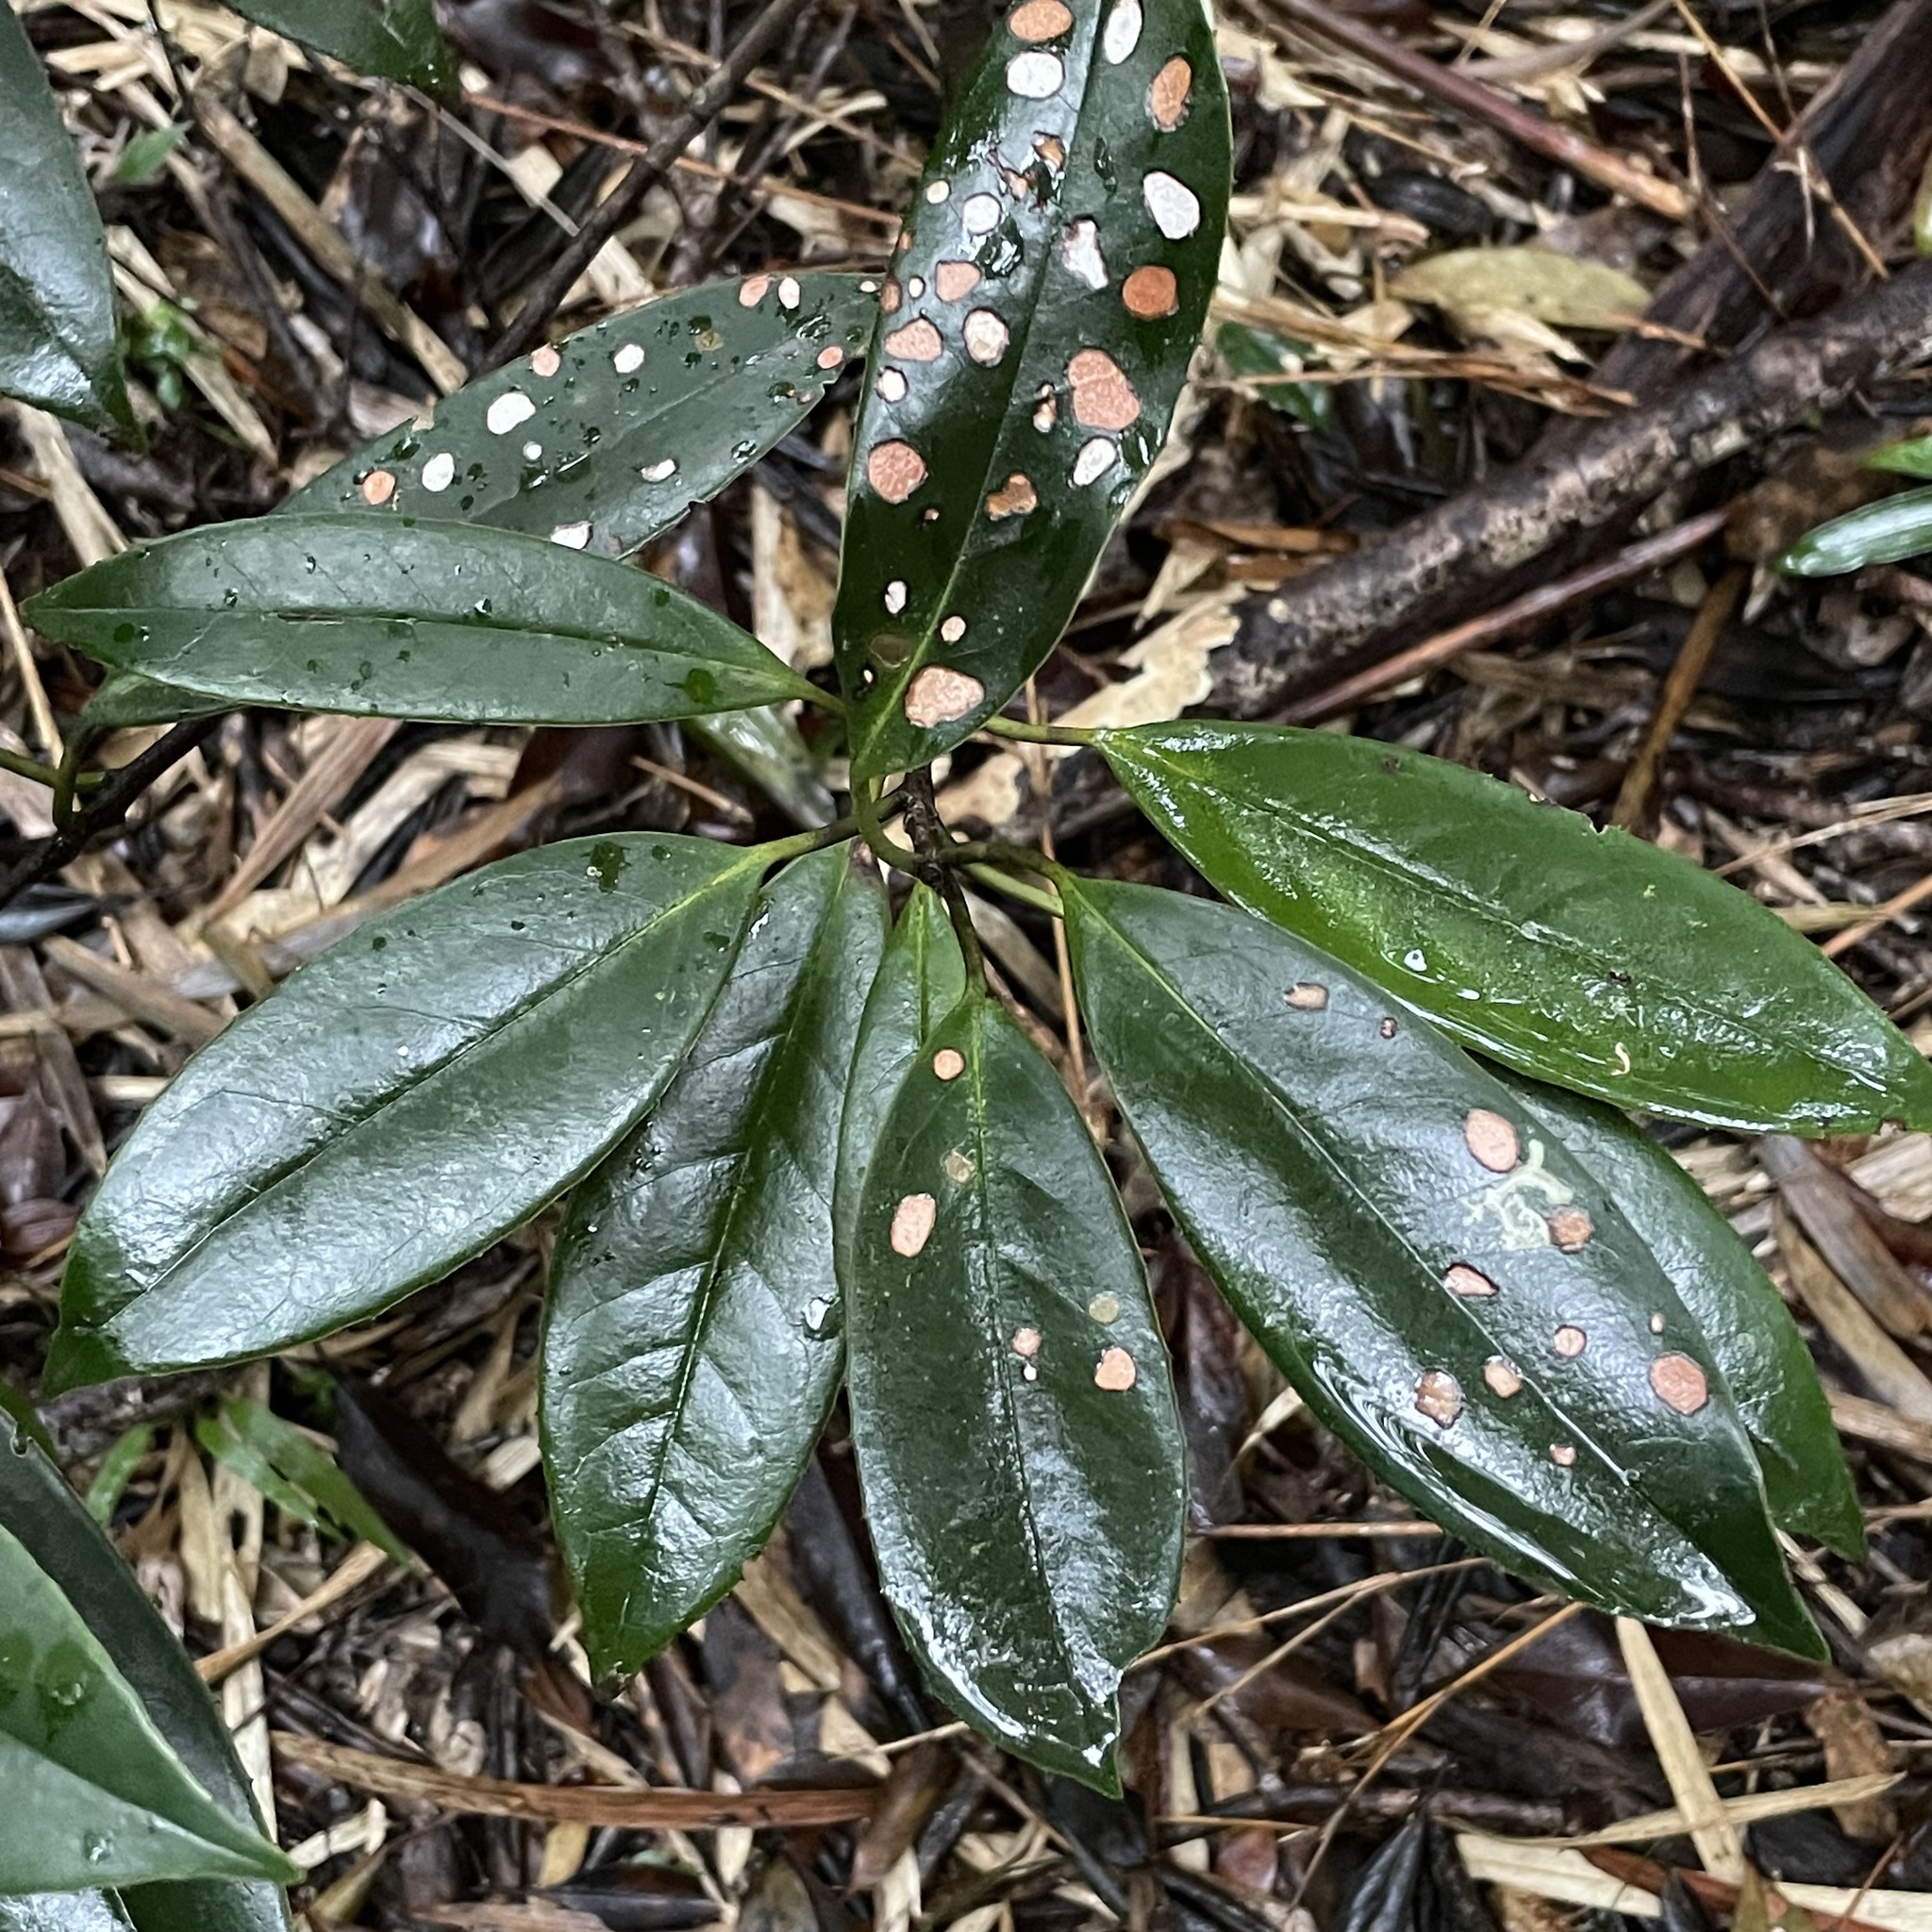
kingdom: Plantae
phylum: Tracheophyta
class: Magnoliopsida
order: Ericales
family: Symplocaceae
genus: Symplocos
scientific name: Symplocos stellaris
